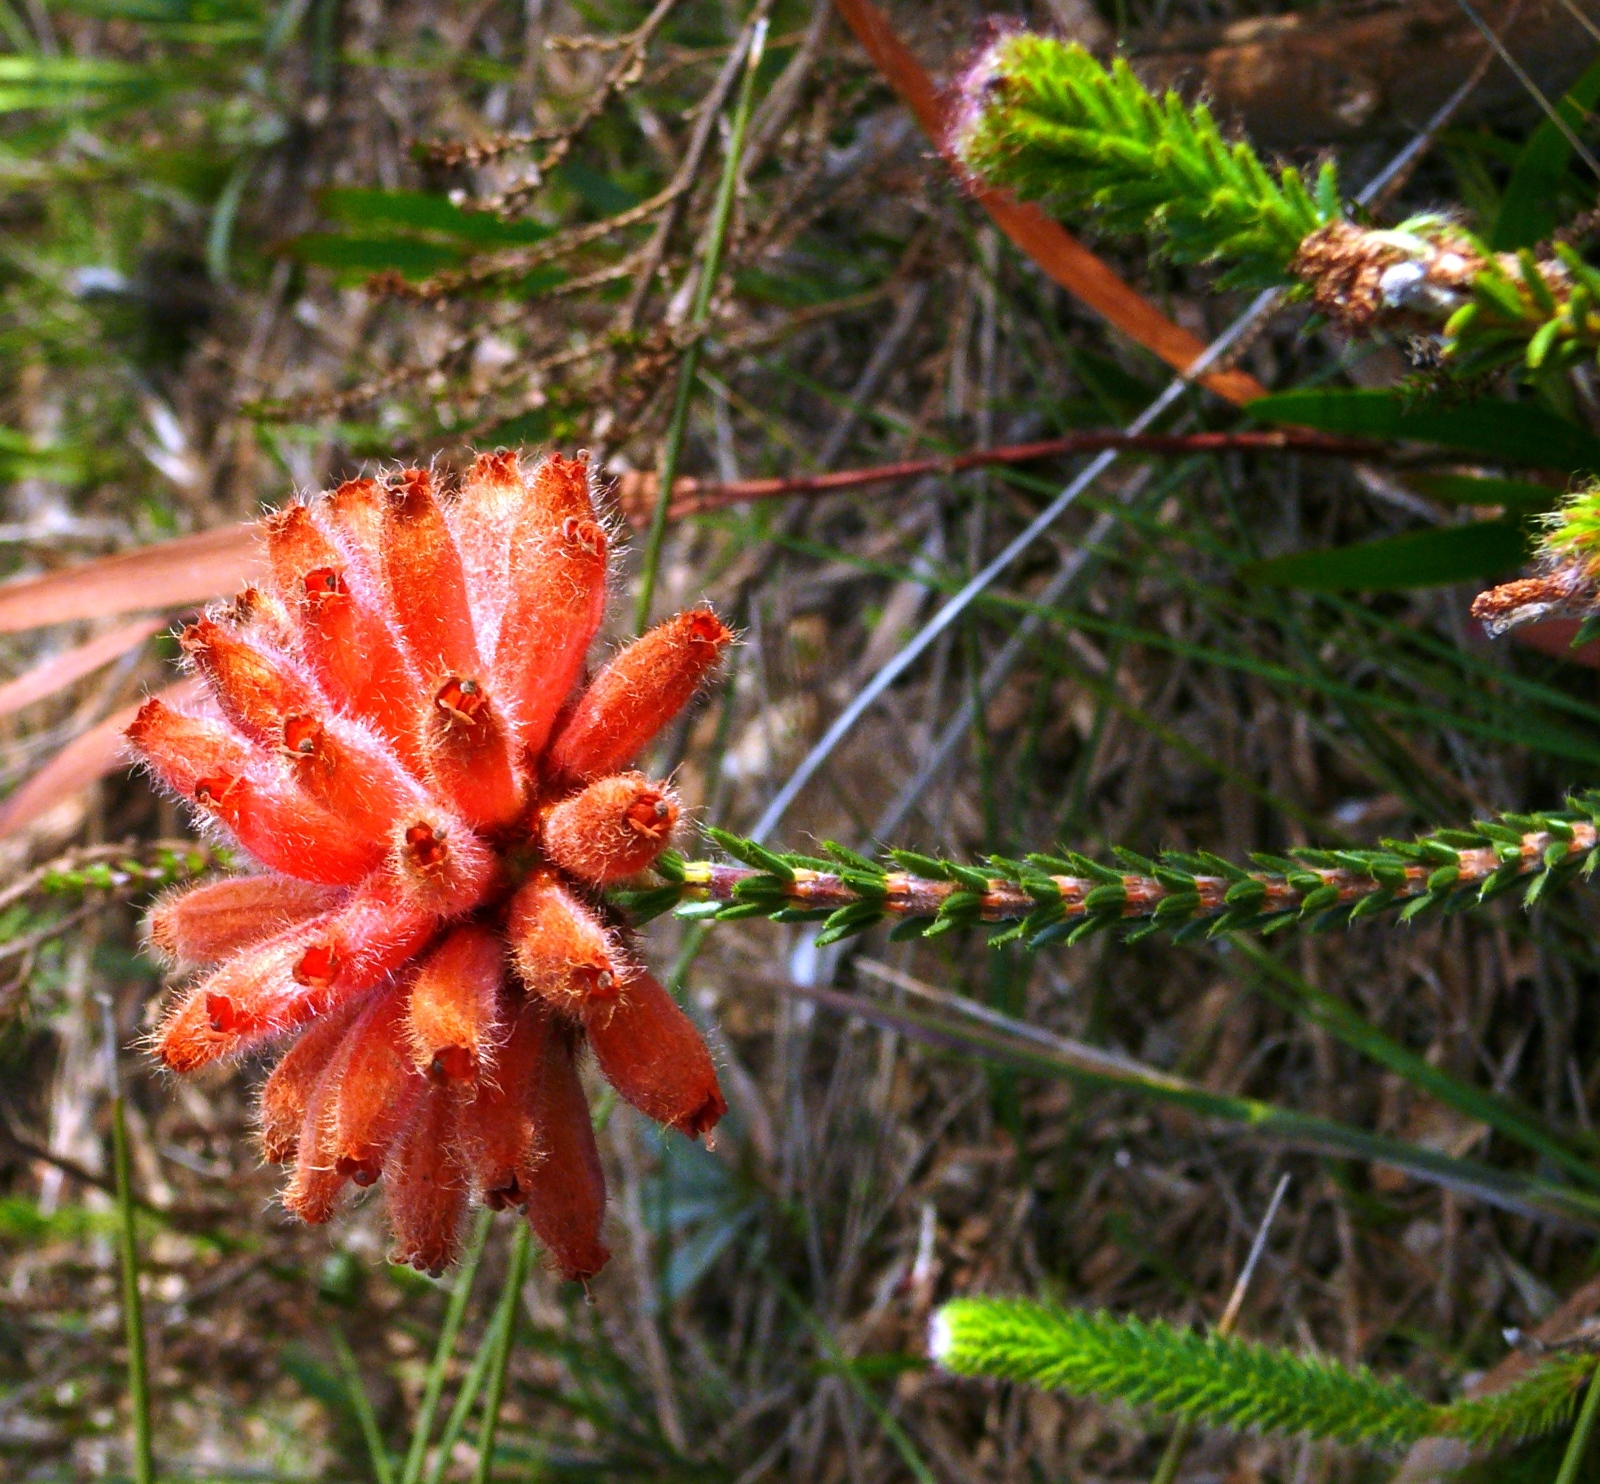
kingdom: Plantae
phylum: Tracheophyta
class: Magnoliopsida
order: Ericales
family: Ericaceae
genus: Erica
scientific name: Erica cerinthoides
